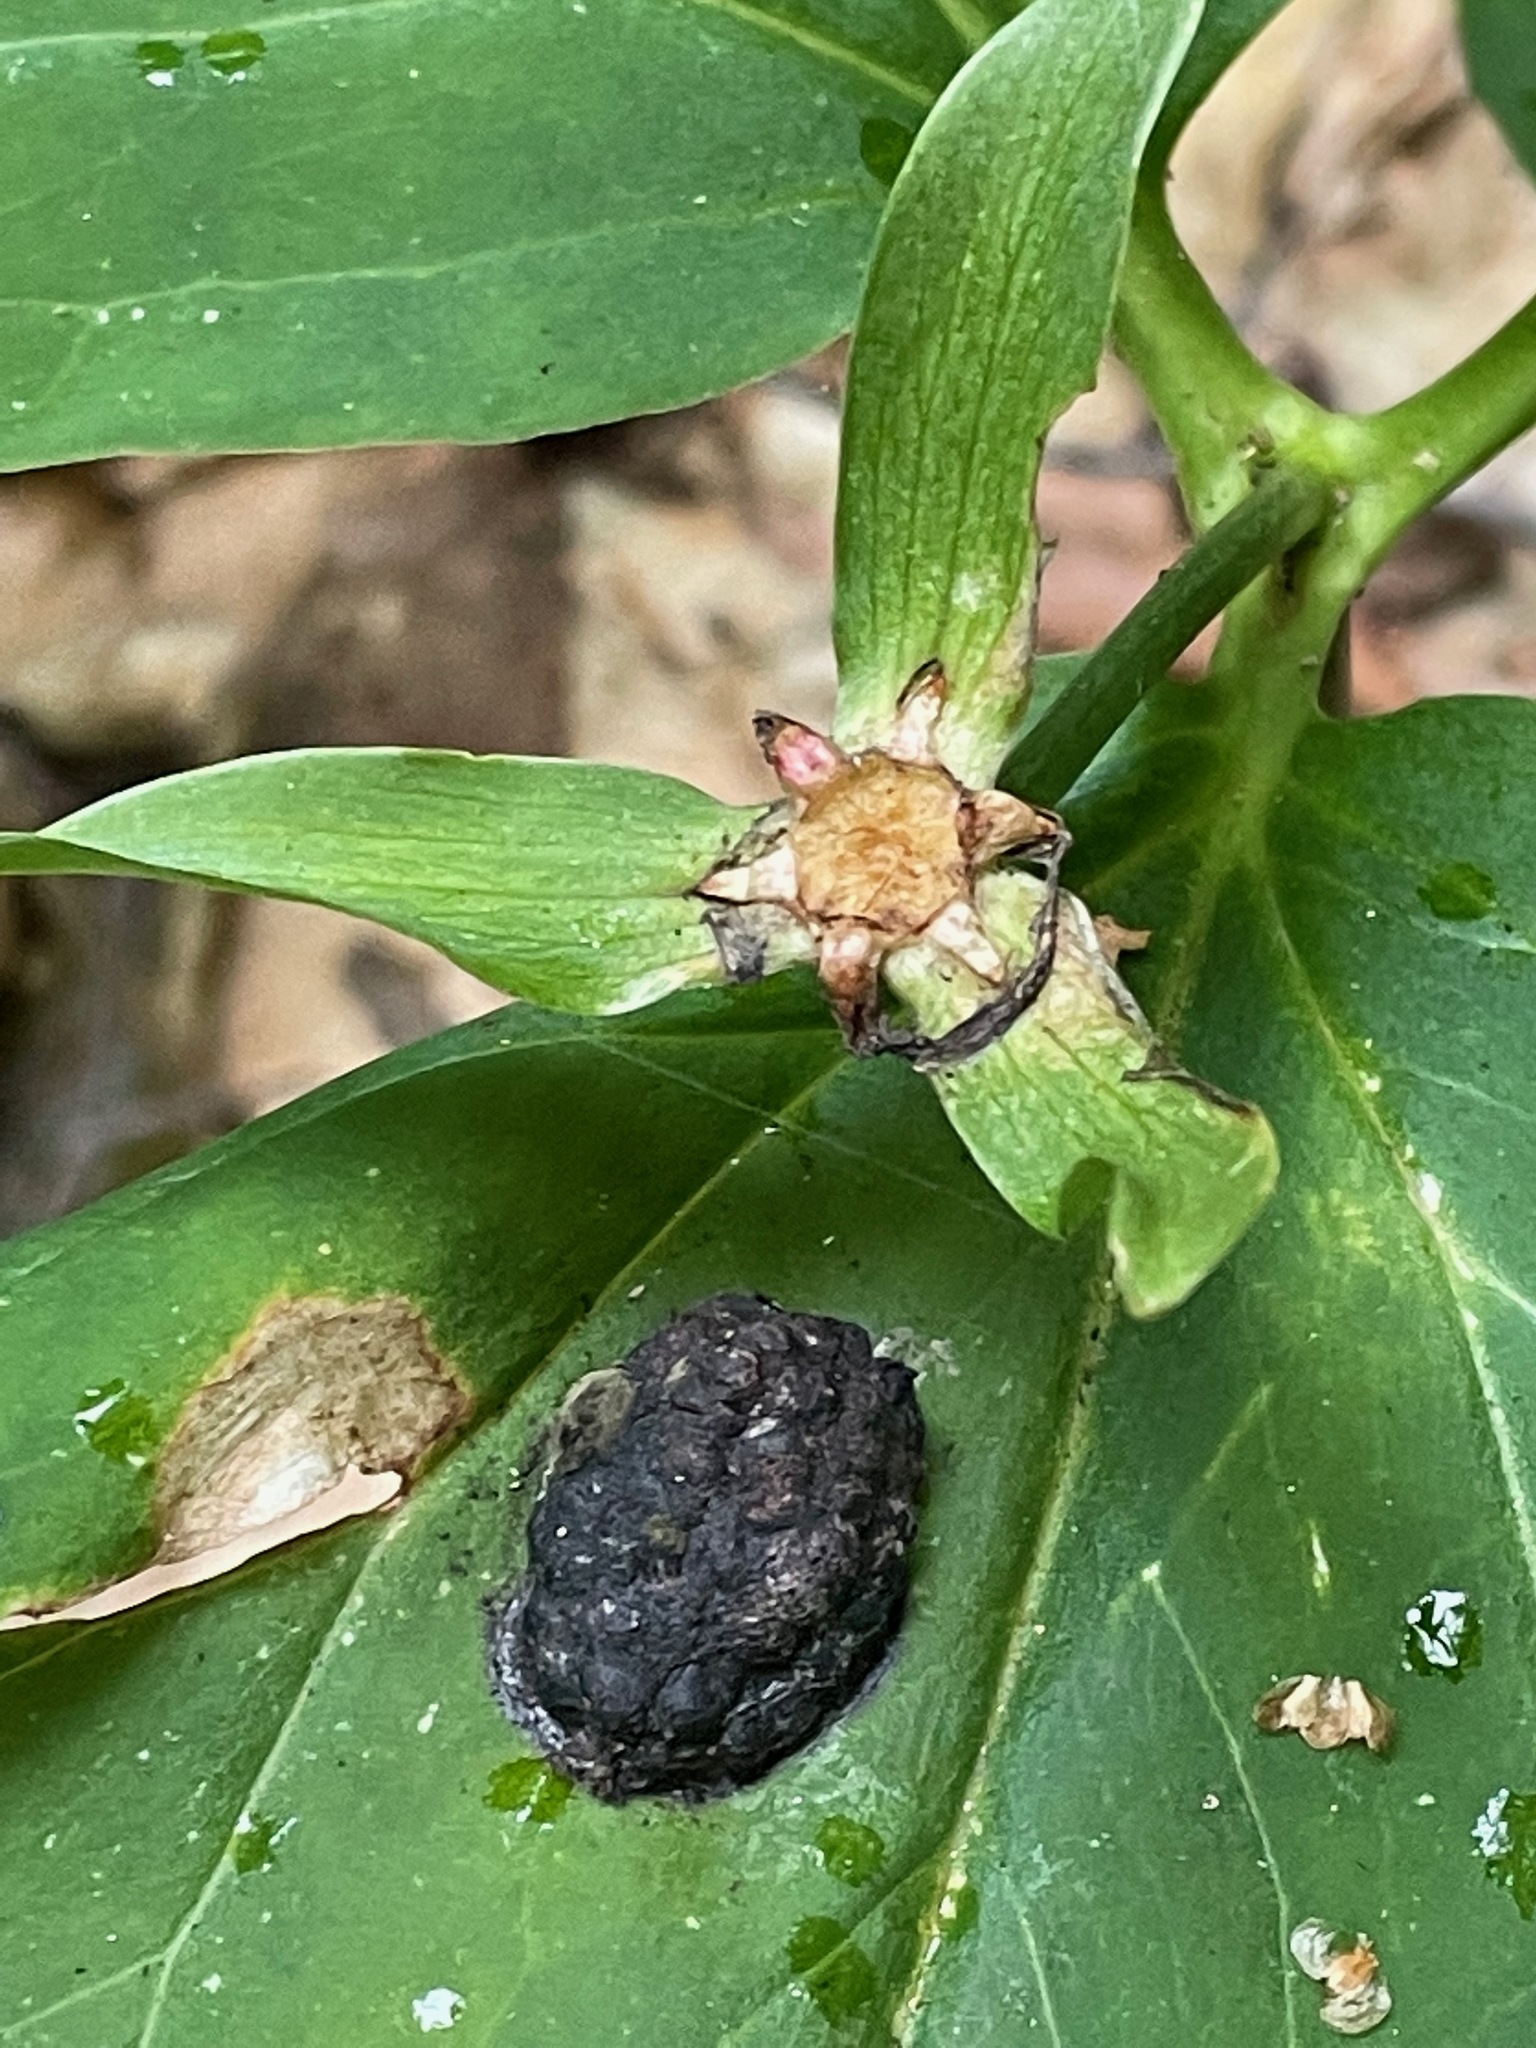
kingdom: Plantae
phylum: Tracheophyta
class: Liliopsida
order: Liliales
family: Melanthiaceae
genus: Trillium
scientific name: Trillium undulatum
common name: Paint trillium
